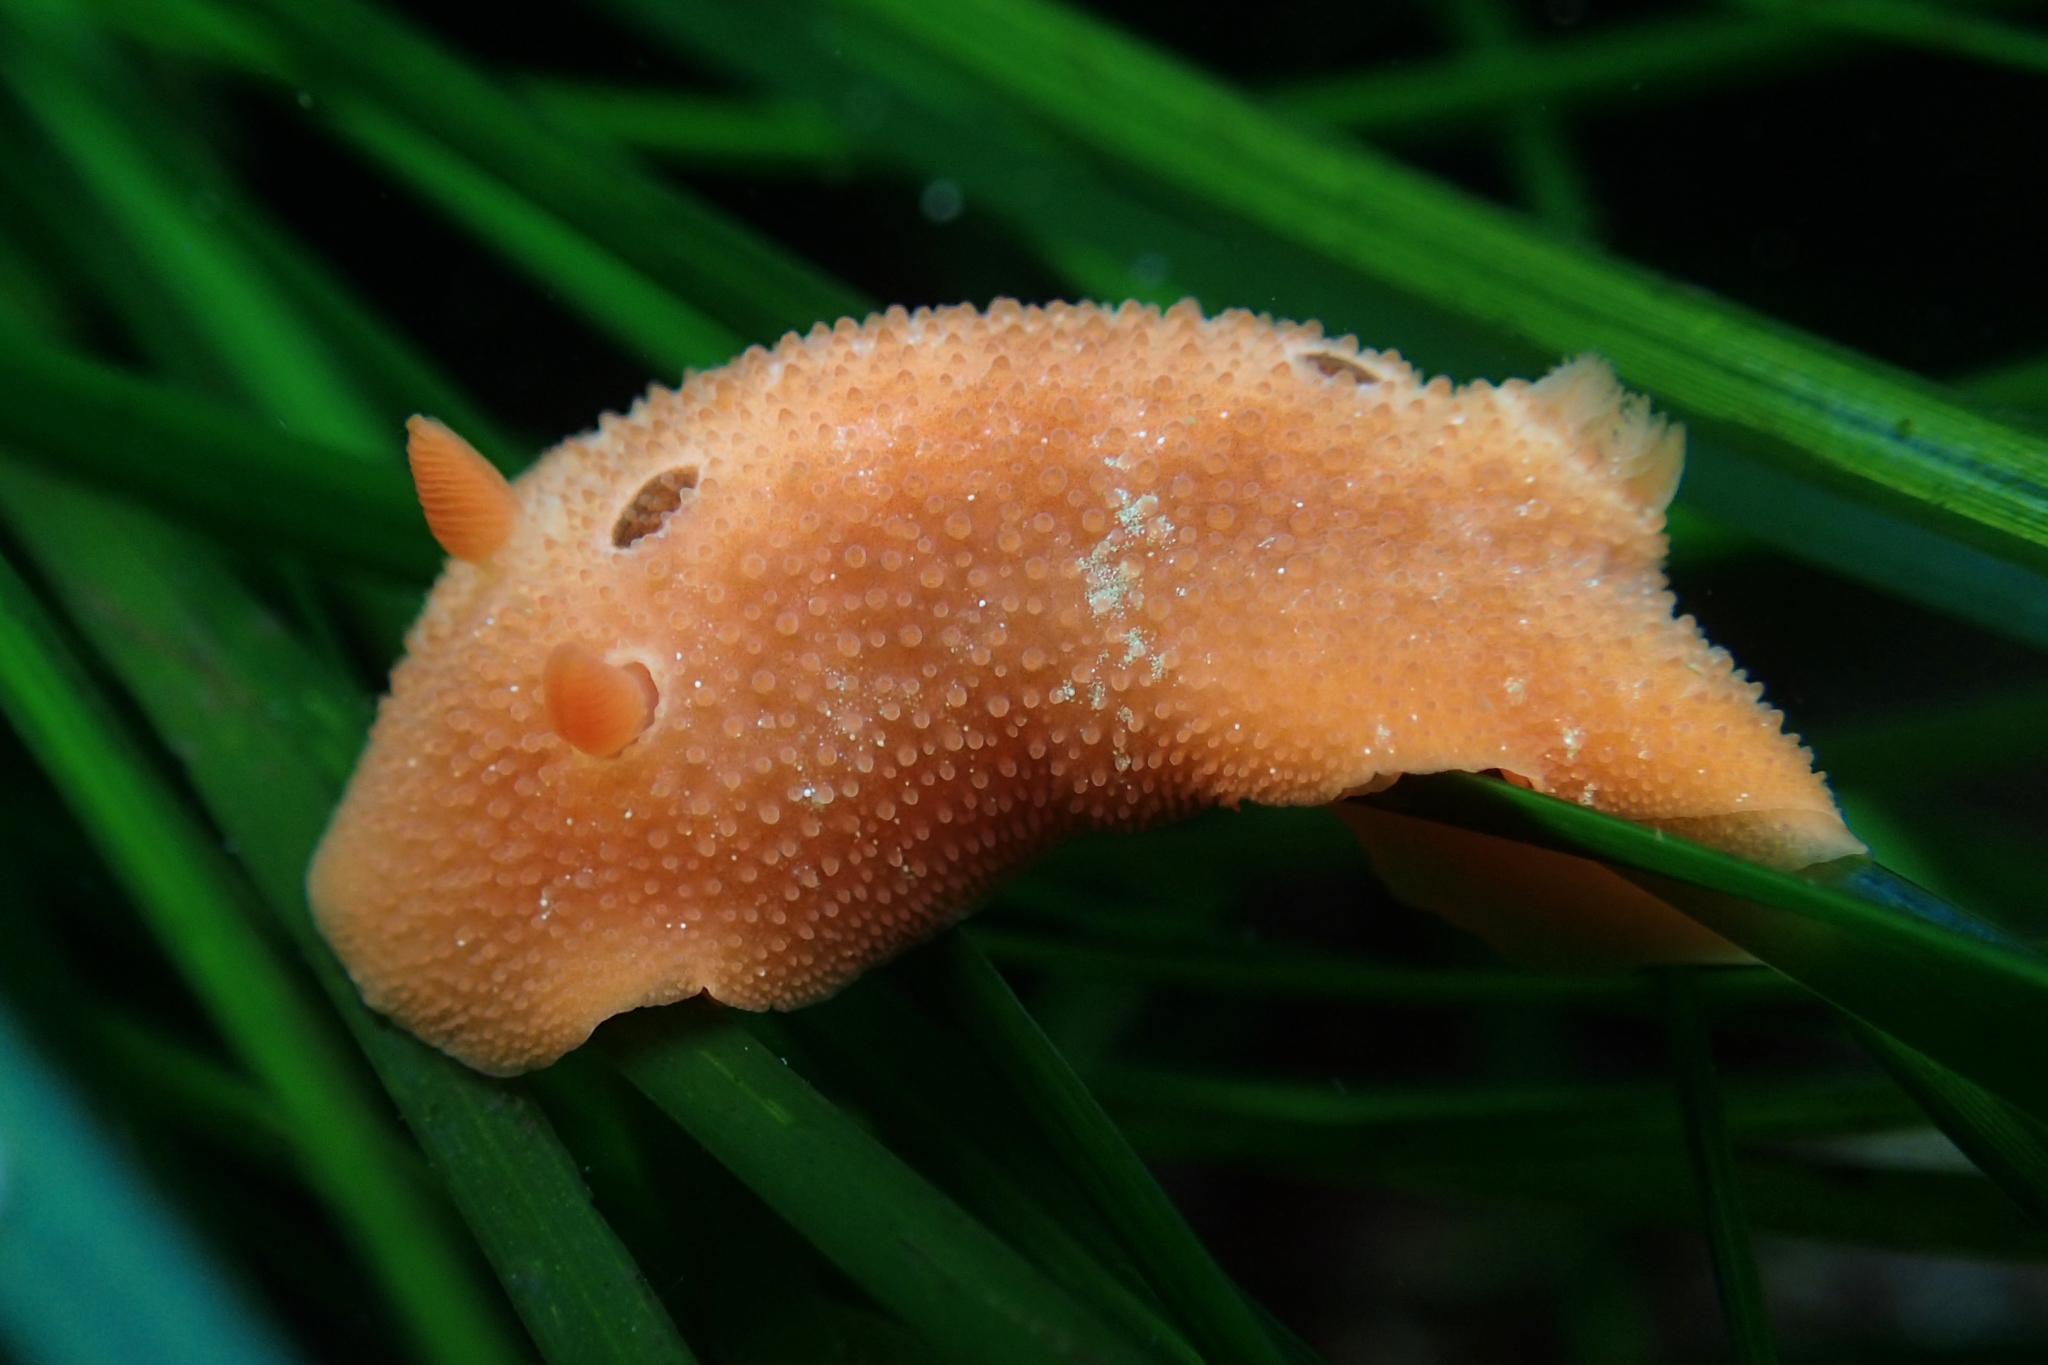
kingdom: Animalia
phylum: Mollusca
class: Gastropoda
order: Nudibranchia
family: Cadlinidae
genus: Aldisa
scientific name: Aldisa sanguinea
